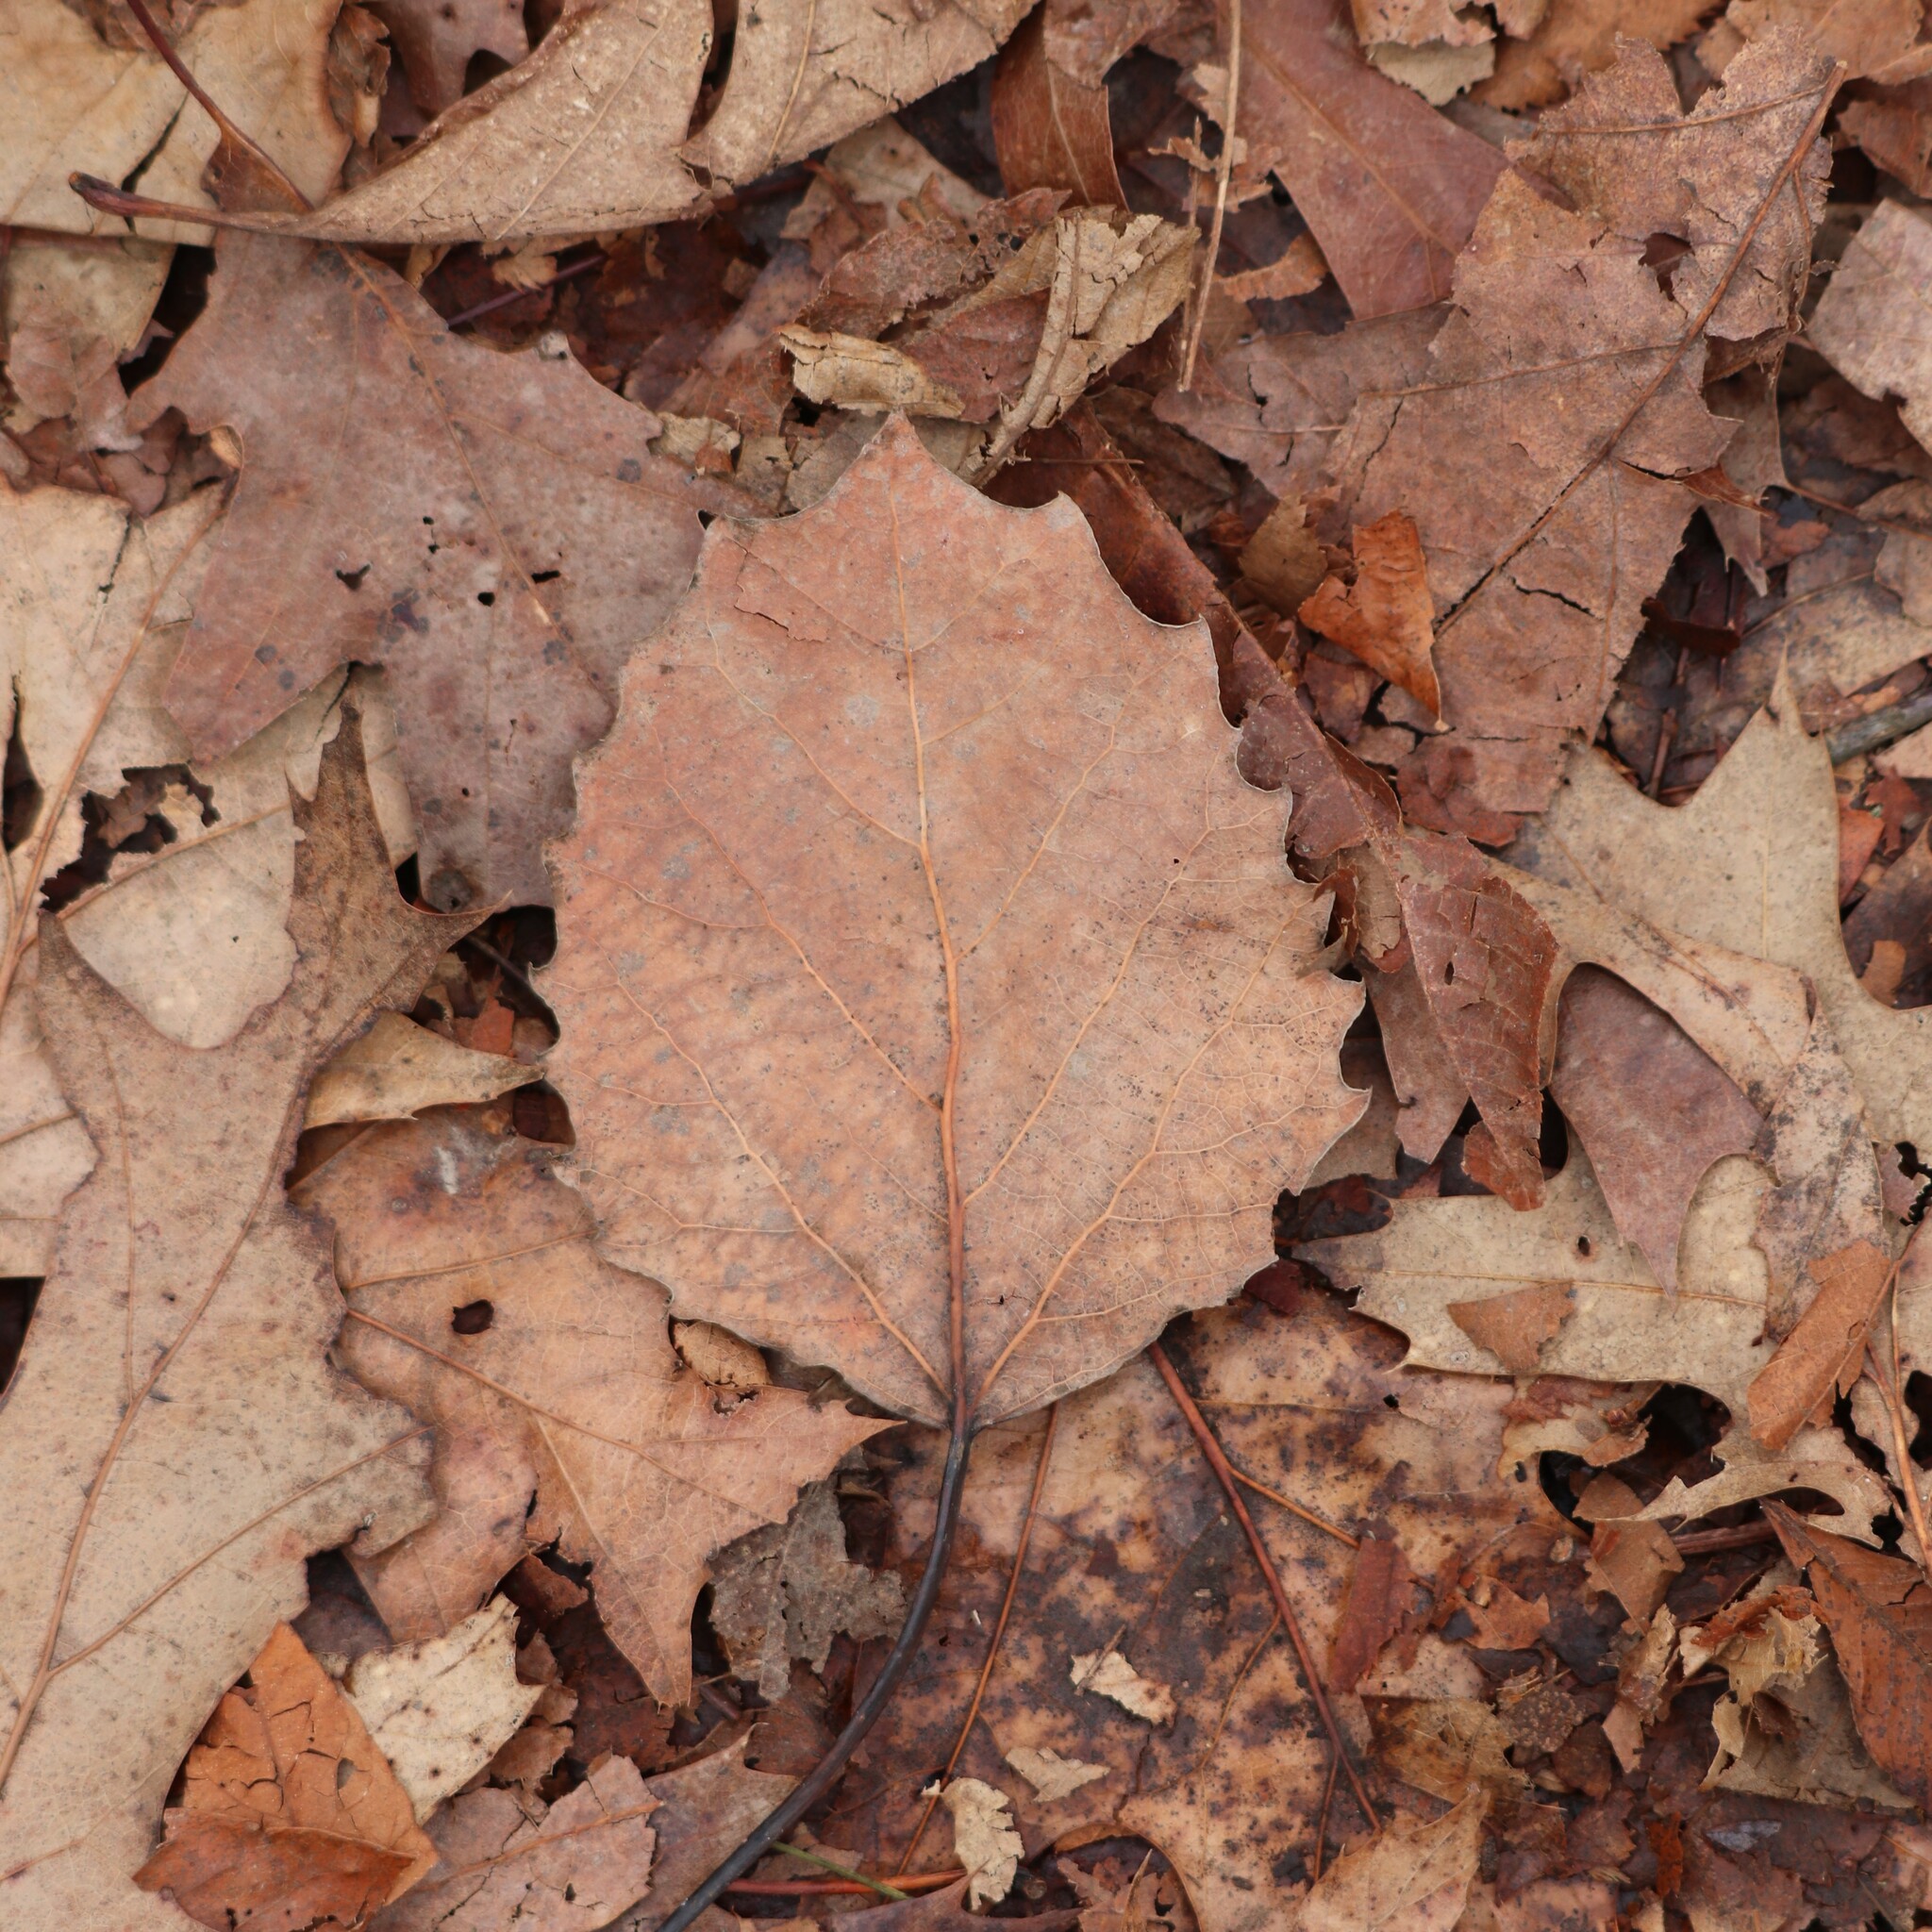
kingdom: Plantae
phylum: Tracheophyta
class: Magnoliopsida
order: Malpighiales
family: Salicaceae
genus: Populus
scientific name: Populus grandidentata
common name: Bigtooth aspen
